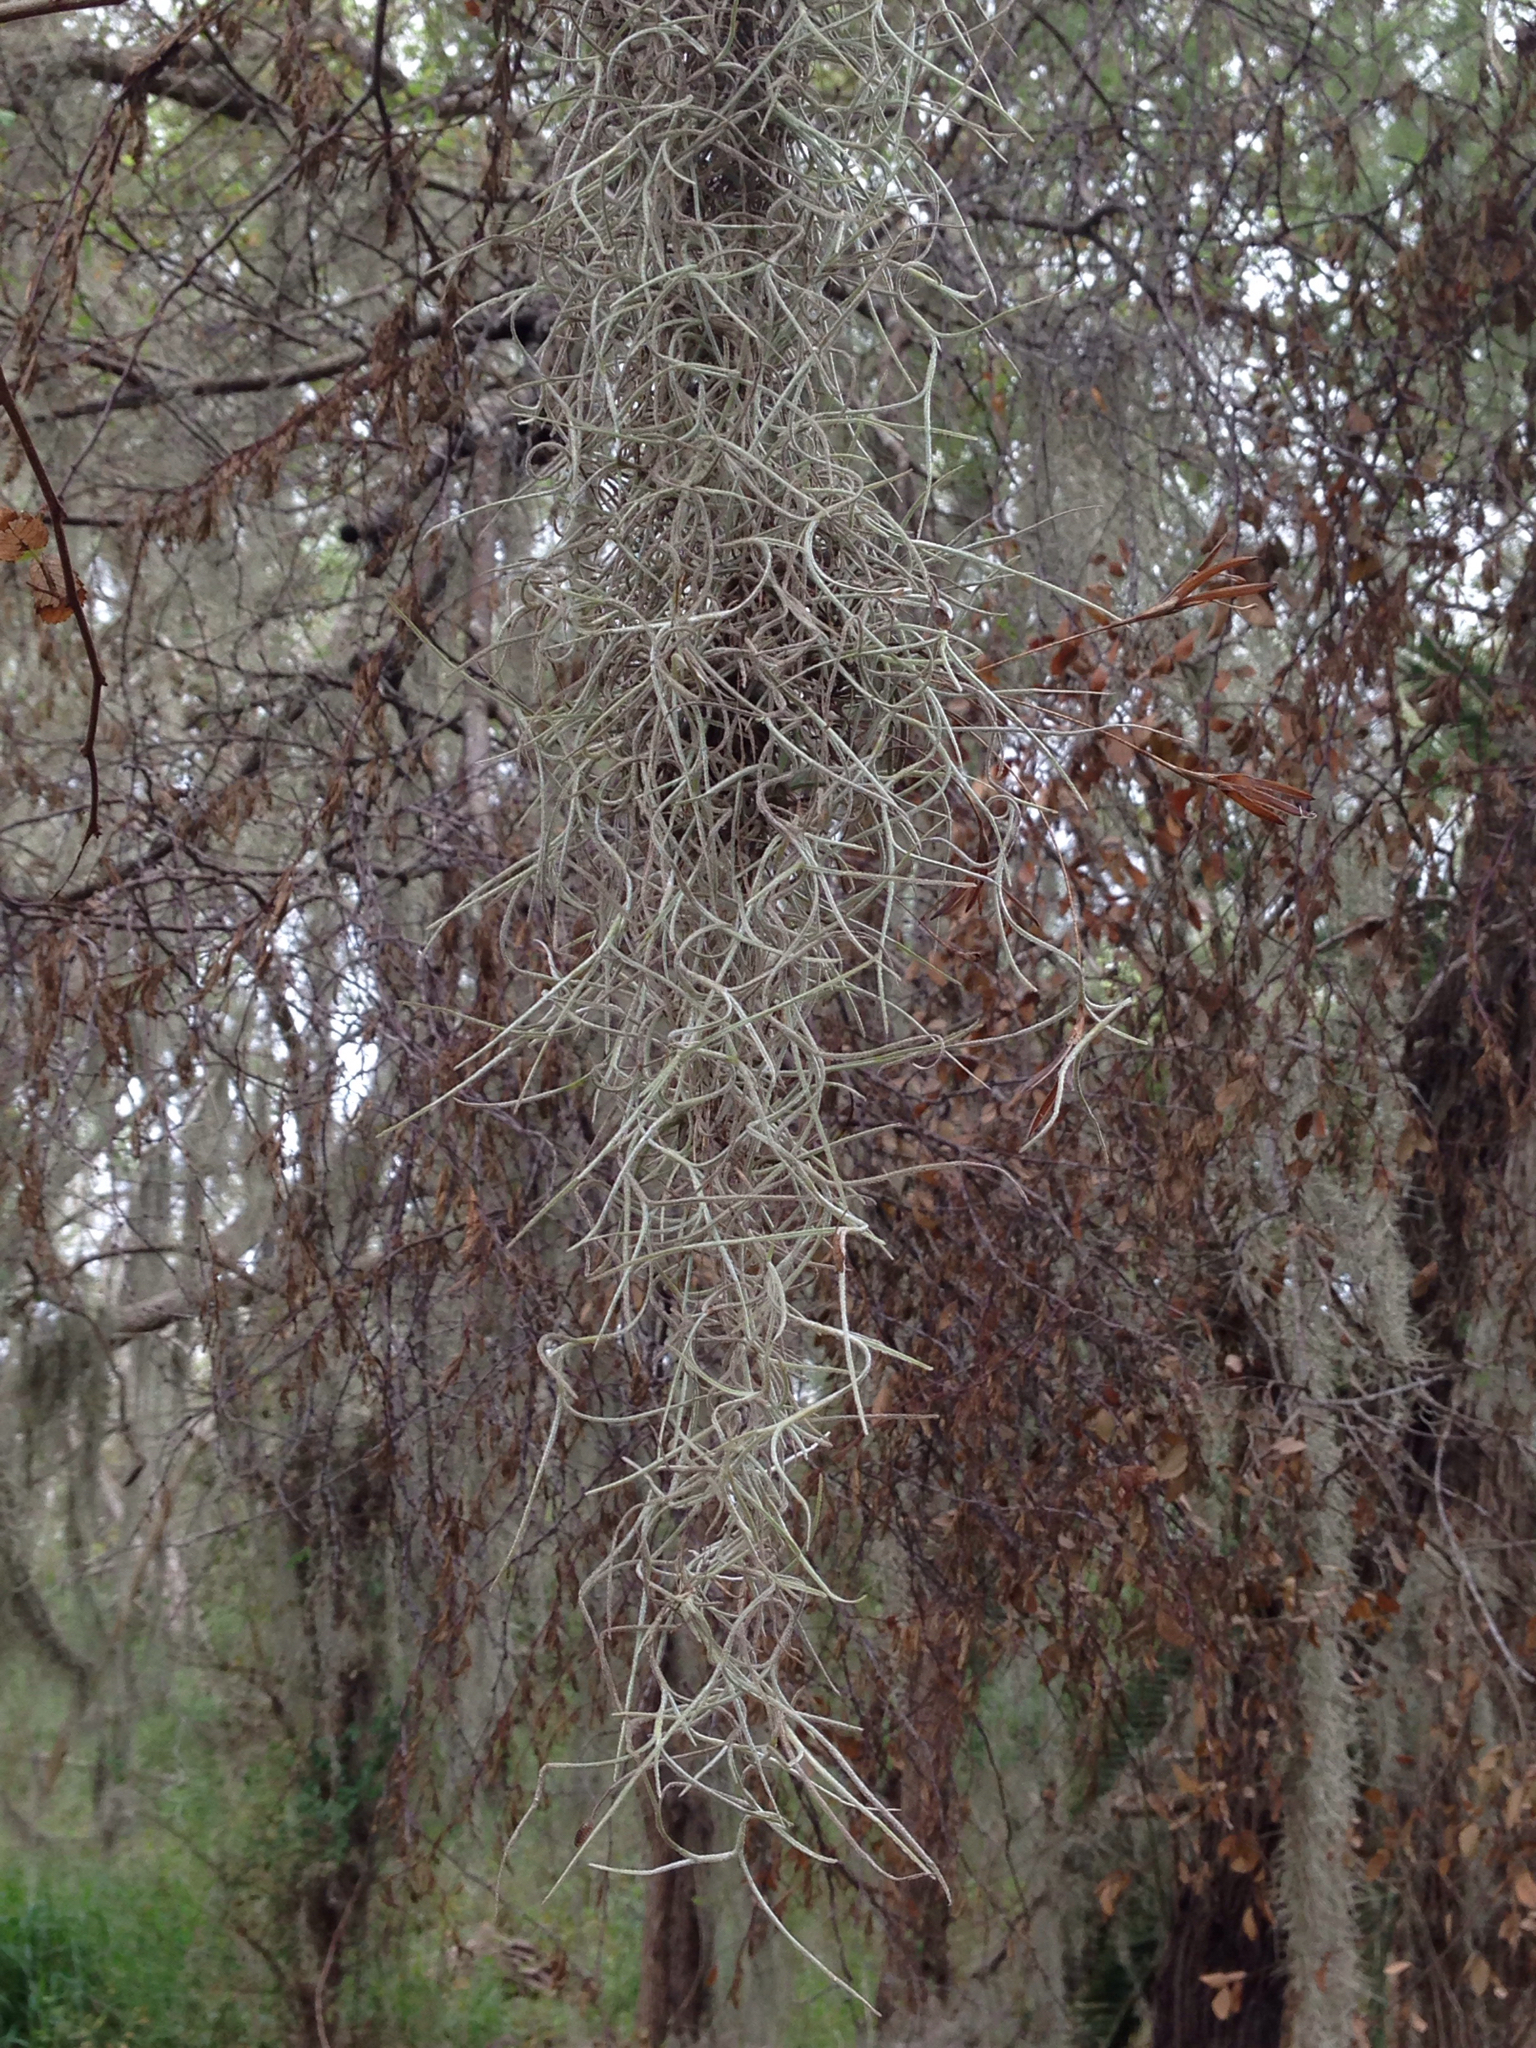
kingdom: Plantae
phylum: Tracheophyta
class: Liliopsida
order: Poales
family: Bromeliaceae
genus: Tillandsia
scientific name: Tillandsia usneoides
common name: Spanish moss
